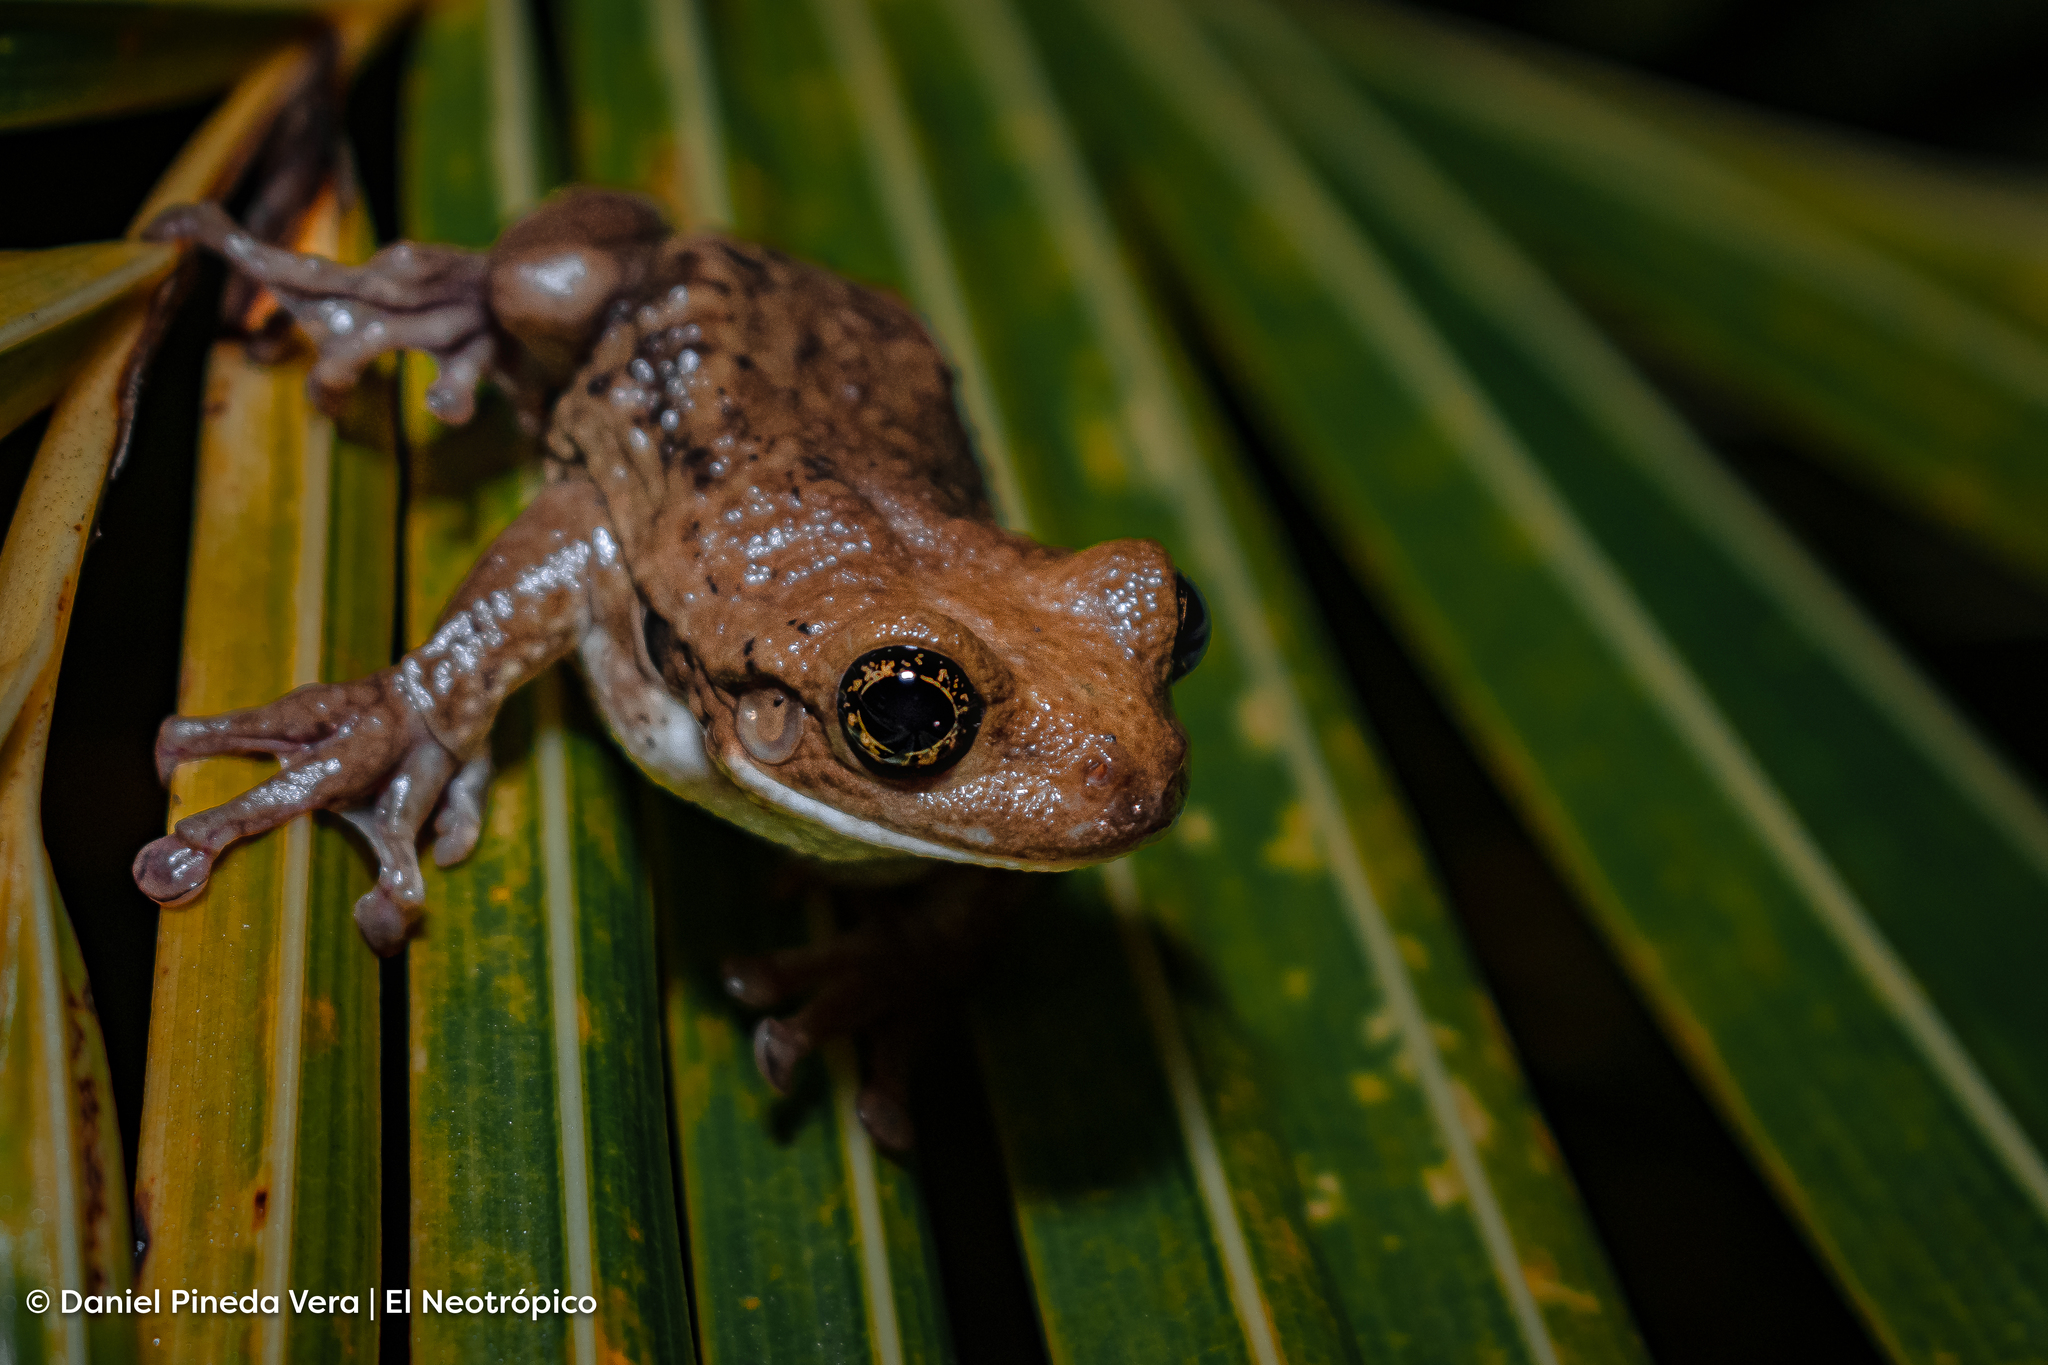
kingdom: Animalia
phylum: Chordata
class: Amphibia
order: Anura
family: Hylidae
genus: Trachycephalus
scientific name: Trachycephalus vermiculatus
